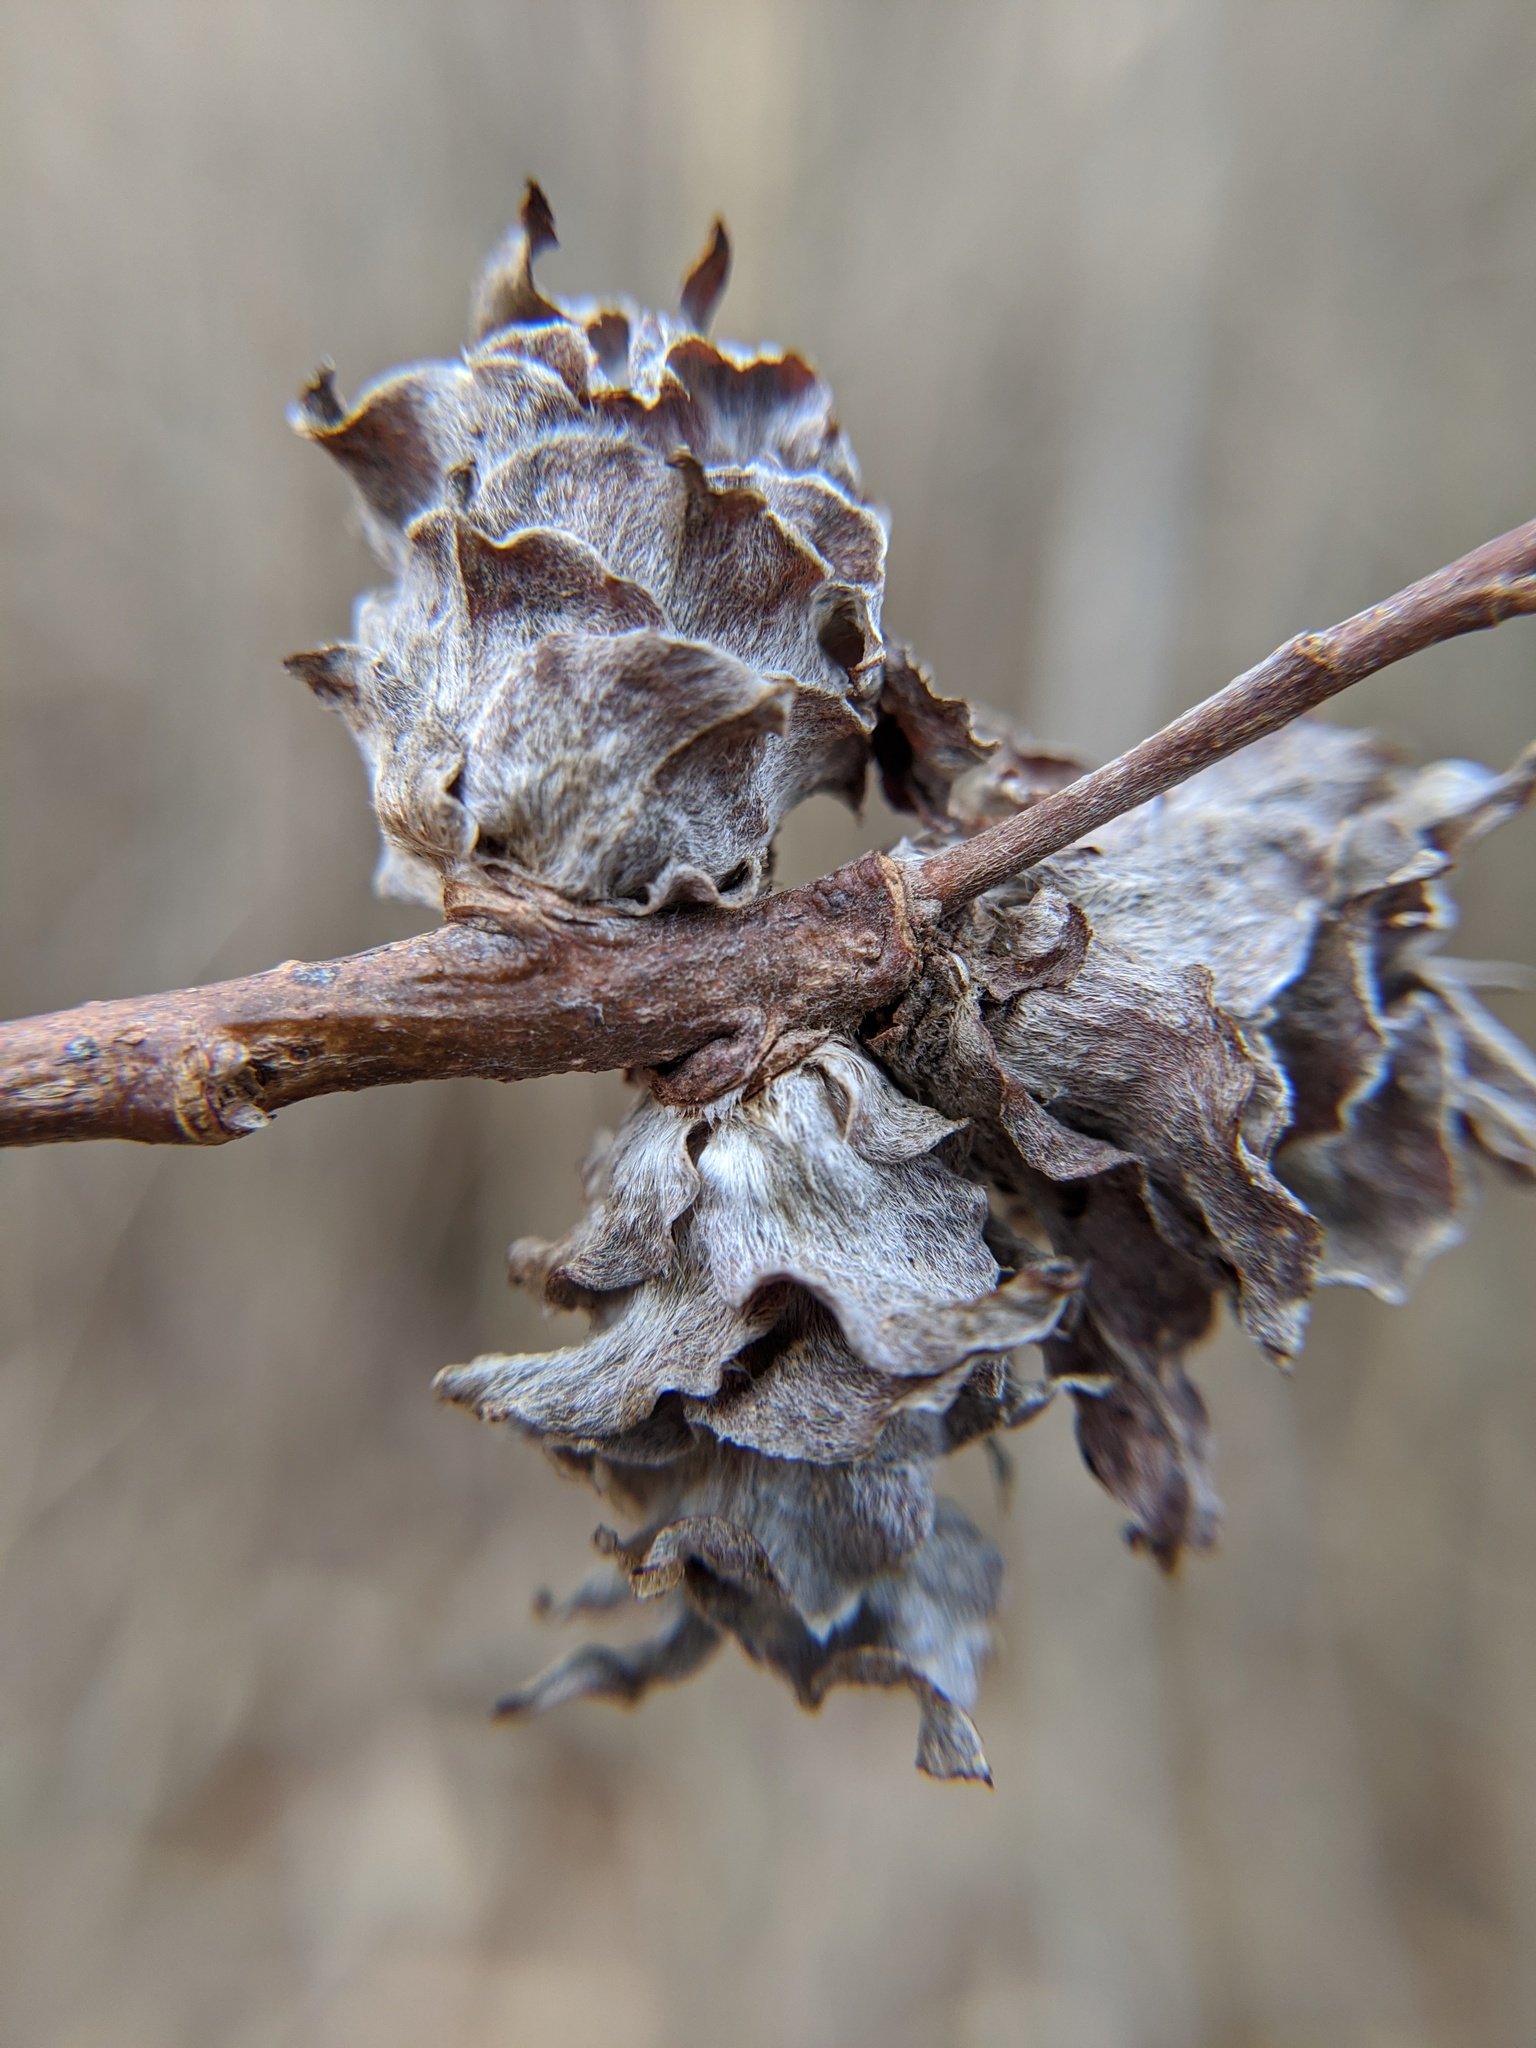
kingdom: Animalia
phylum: Arthropoda
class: Insecta
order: Diptera
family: Cecidomyiidae
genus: Rabdophaga
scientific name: Rabdophaga salicisbrassicoides
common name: Willow cabbagegall midge
